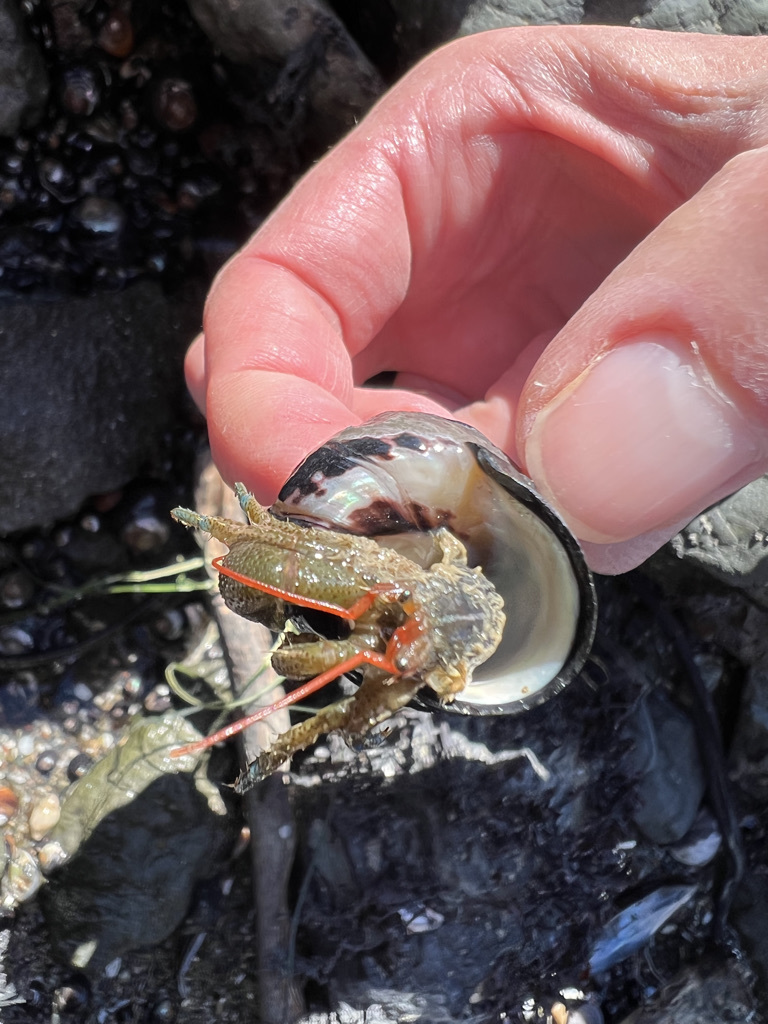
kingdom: Animalia
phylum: Arthropoda
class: Malacostraca
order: Decapoda
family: Paguridae
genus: Pagurus
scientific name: Pagurus samuelis
